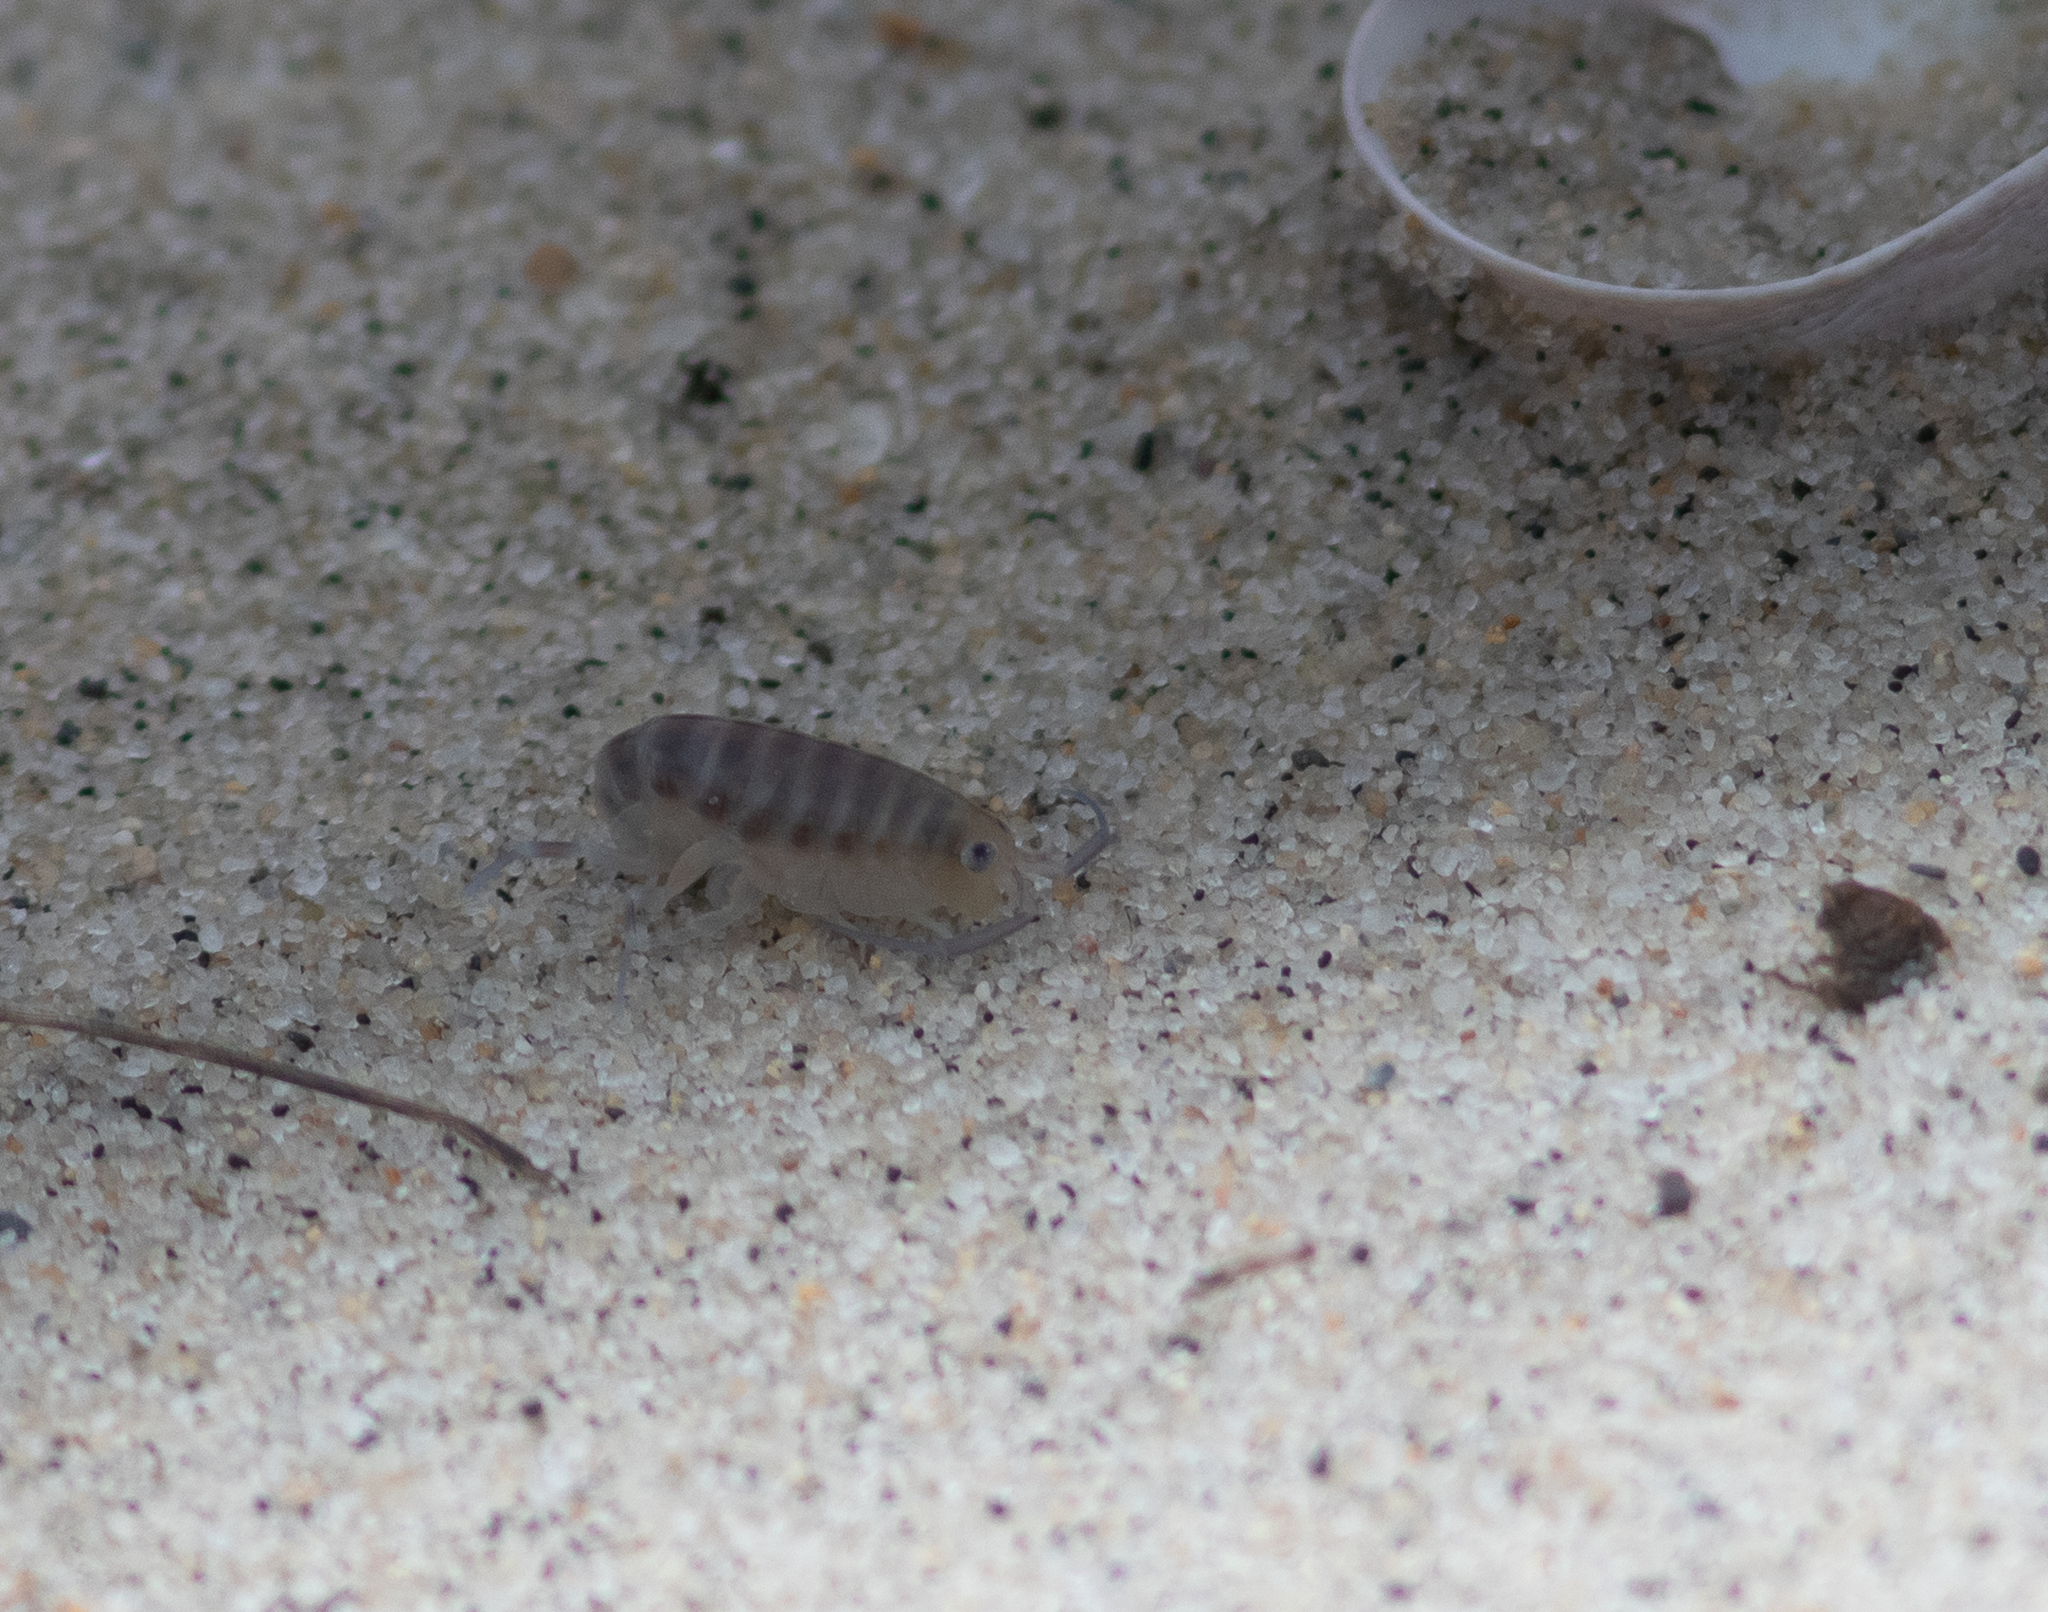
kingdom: Animalia
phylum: Arthropoda
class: Malacostraca
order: Amphipoda
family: Talitridae
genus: Americorchestia
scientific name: Americorchestia
